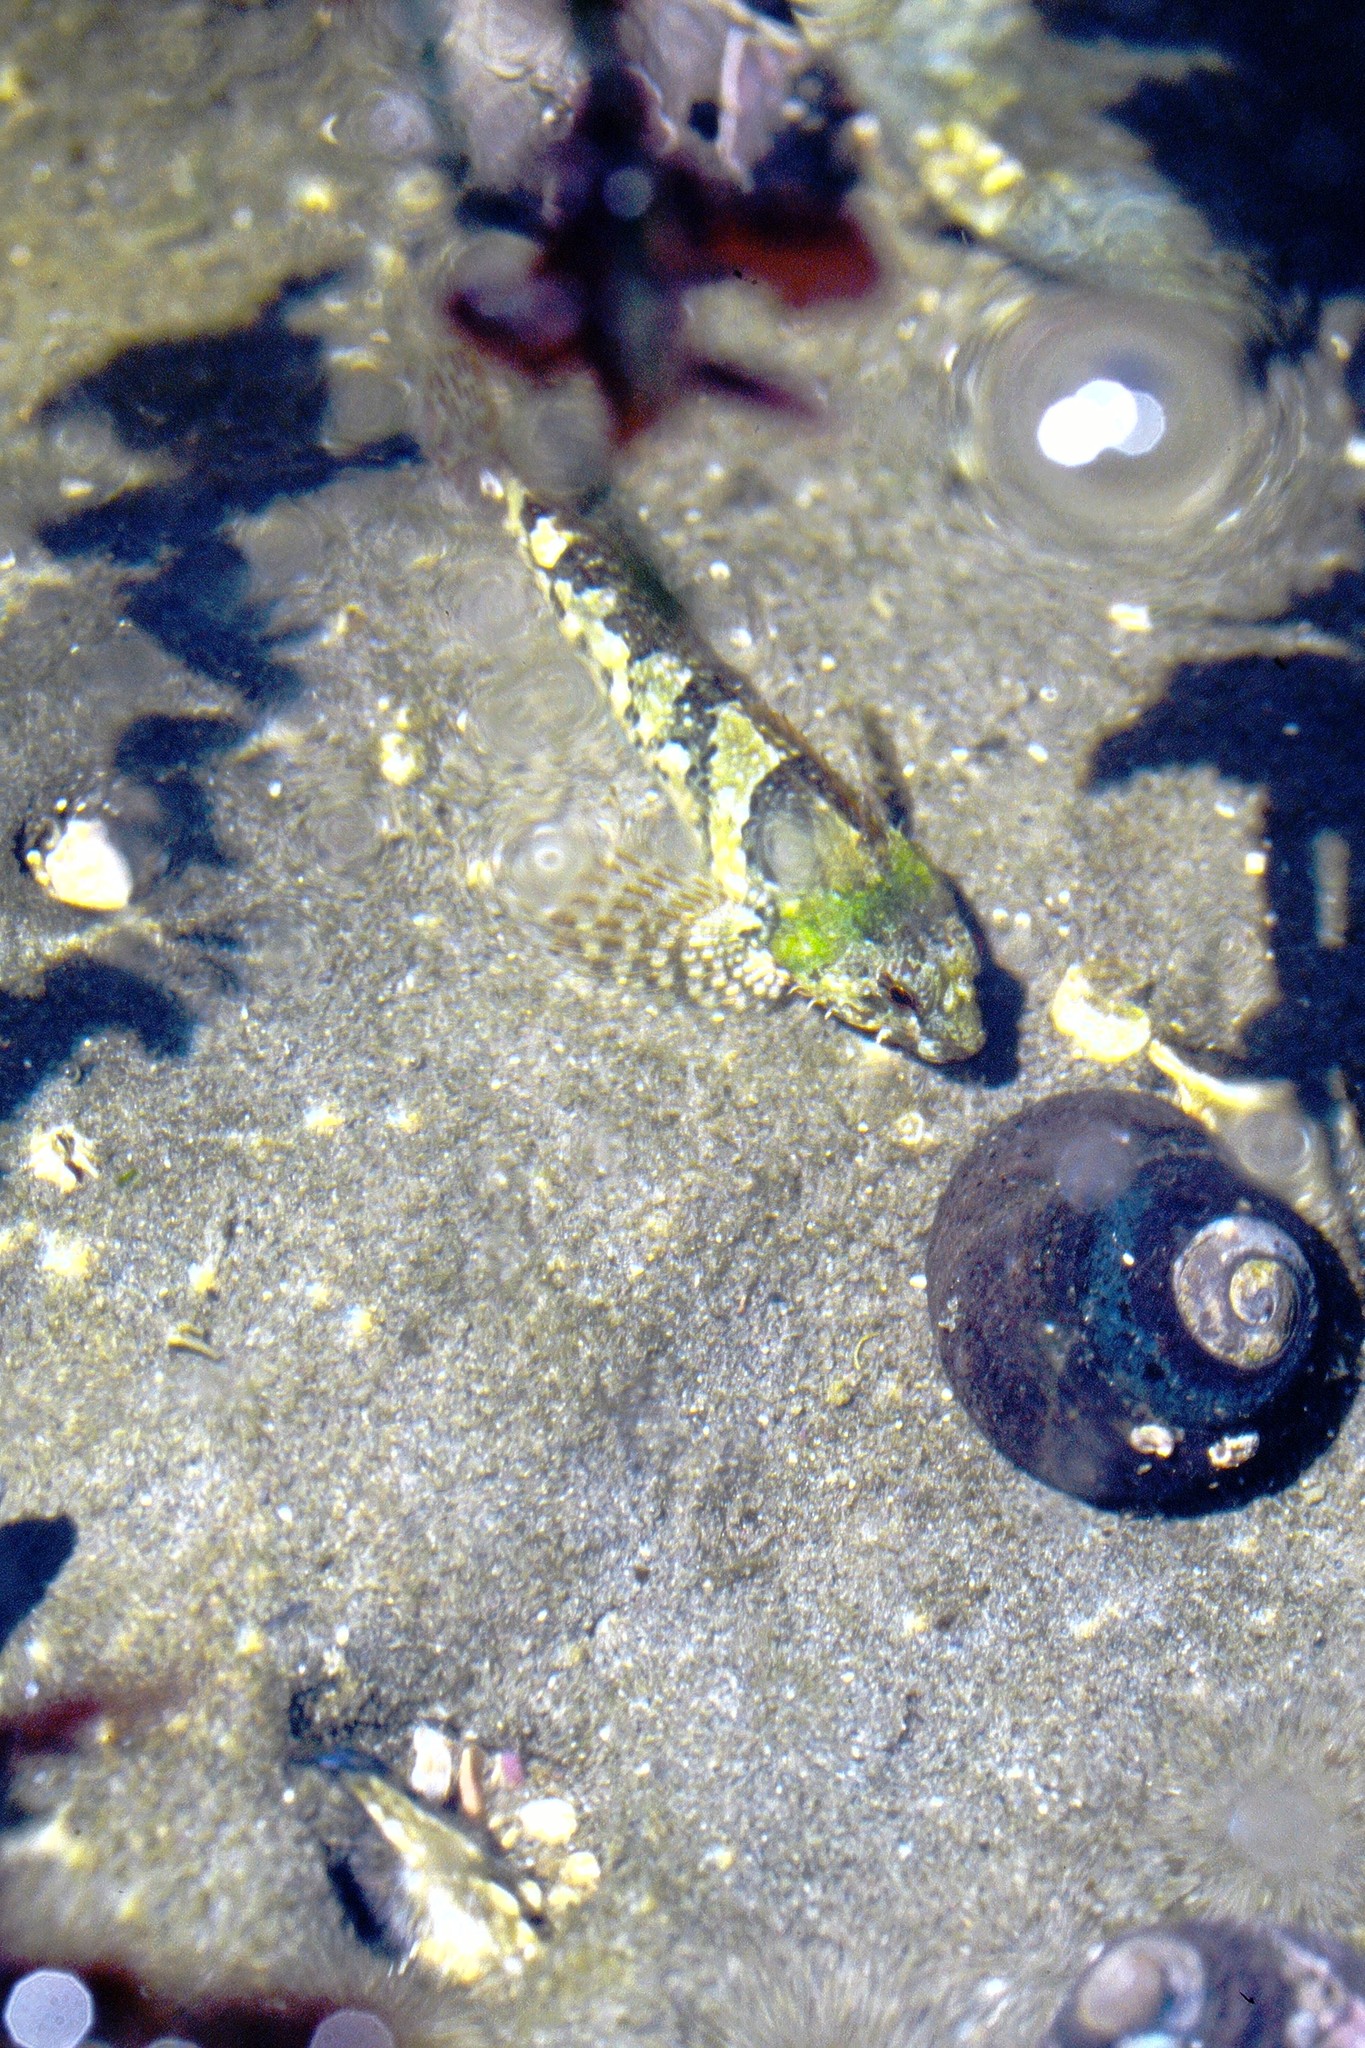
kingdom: Animalia
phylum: Chordata
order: Scorpaeniformes
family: Cottidae
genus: Oligocottus
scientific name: Oligocottus maculosus
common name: Tidepool sculpin
